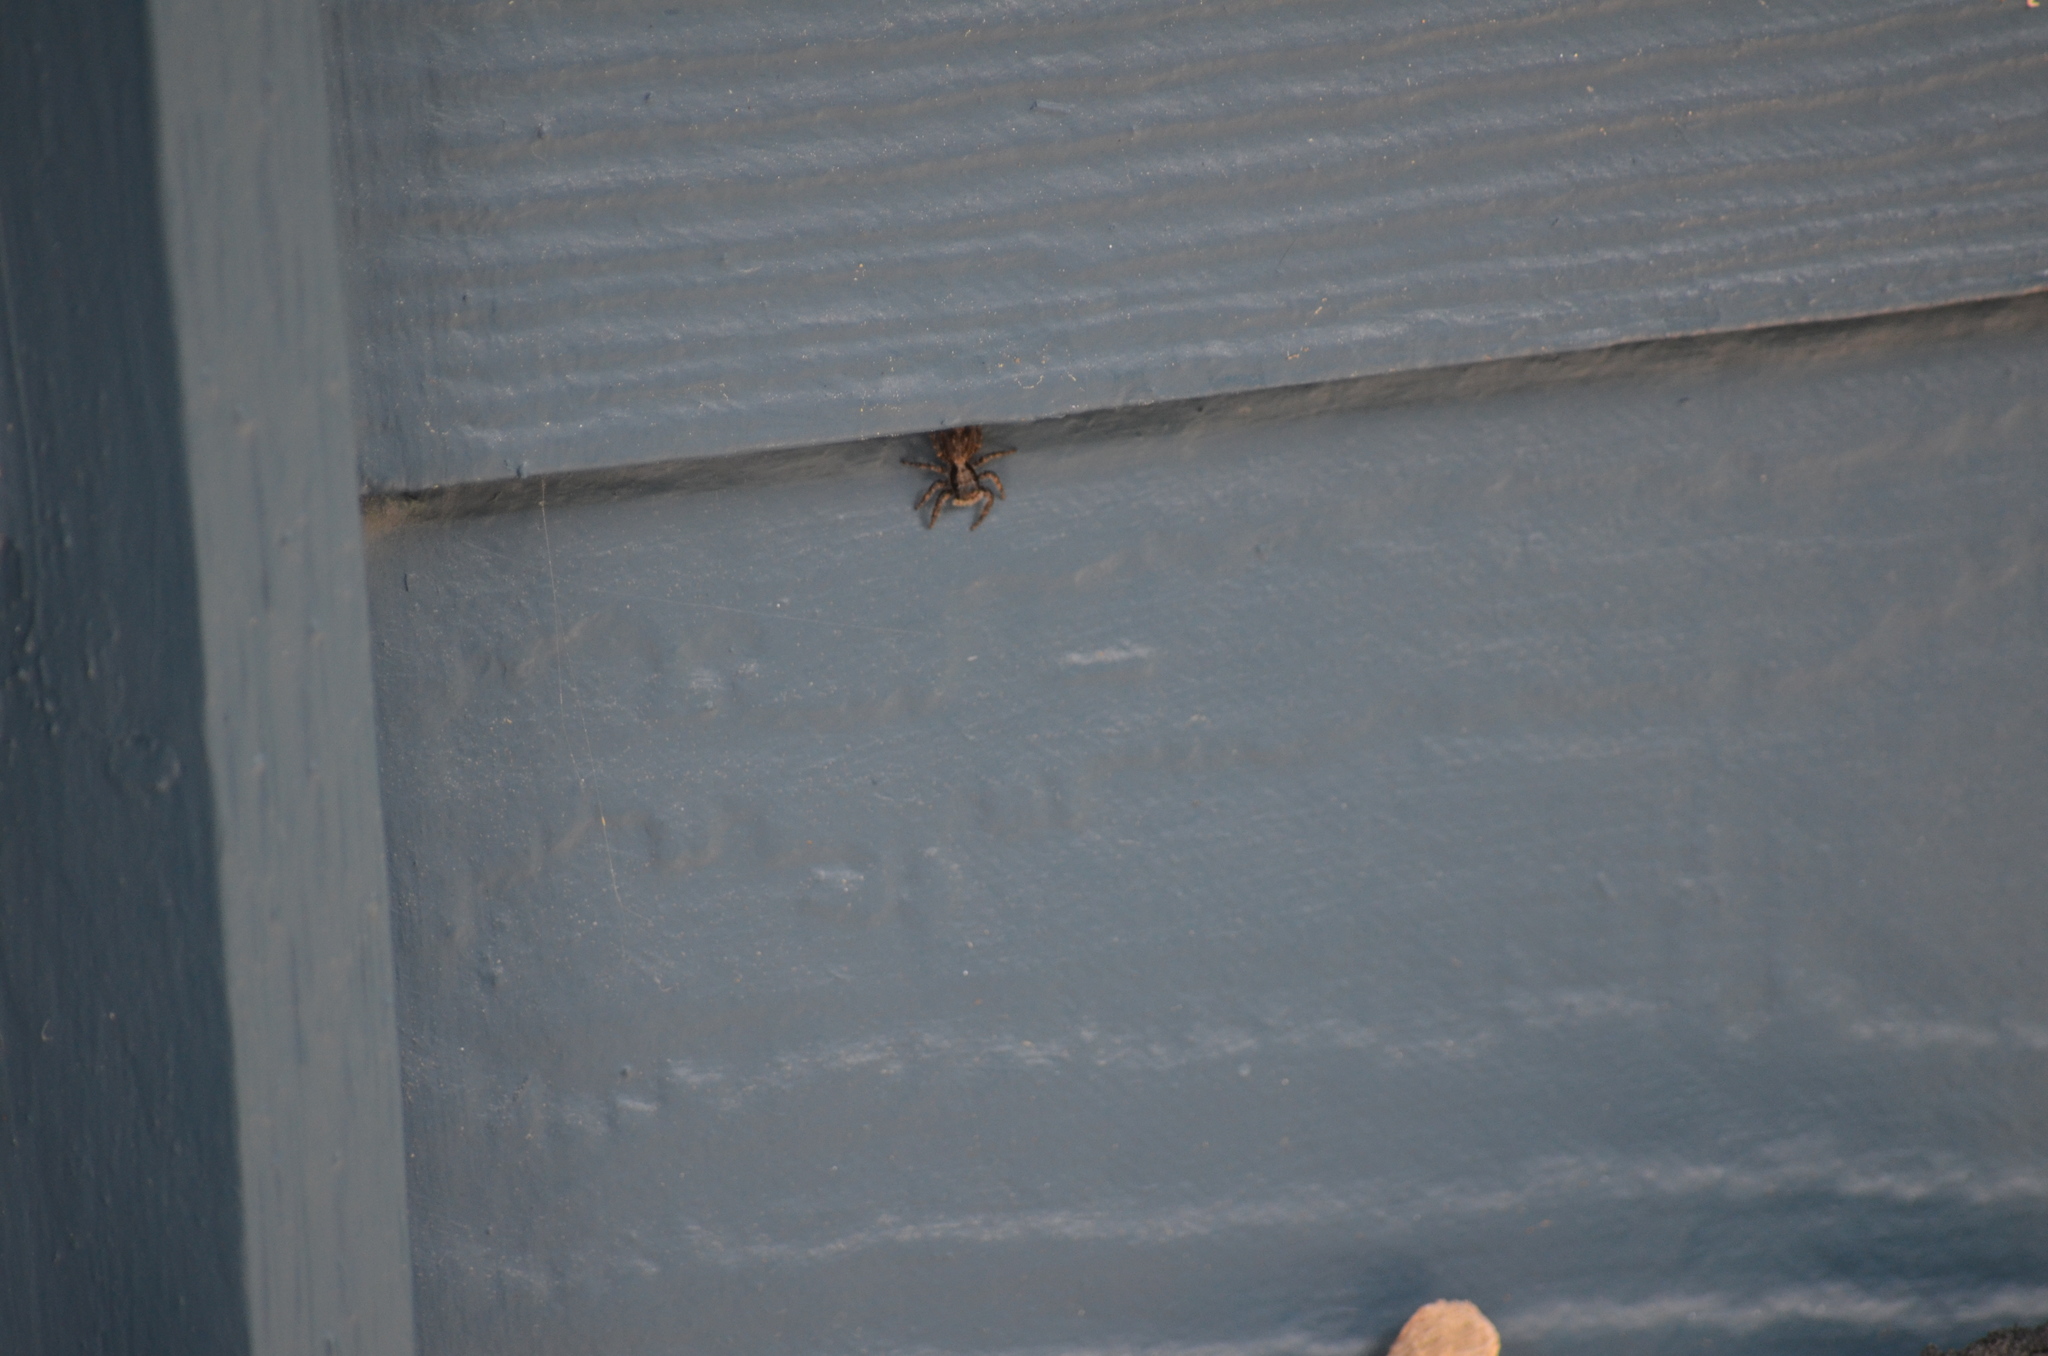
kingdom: Animalia
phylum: Arthropoda
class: Arachnida
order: Araneae
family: Salticidae
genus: Platycryptus
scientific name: Platycryptus californicus
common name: Jumping spiders
